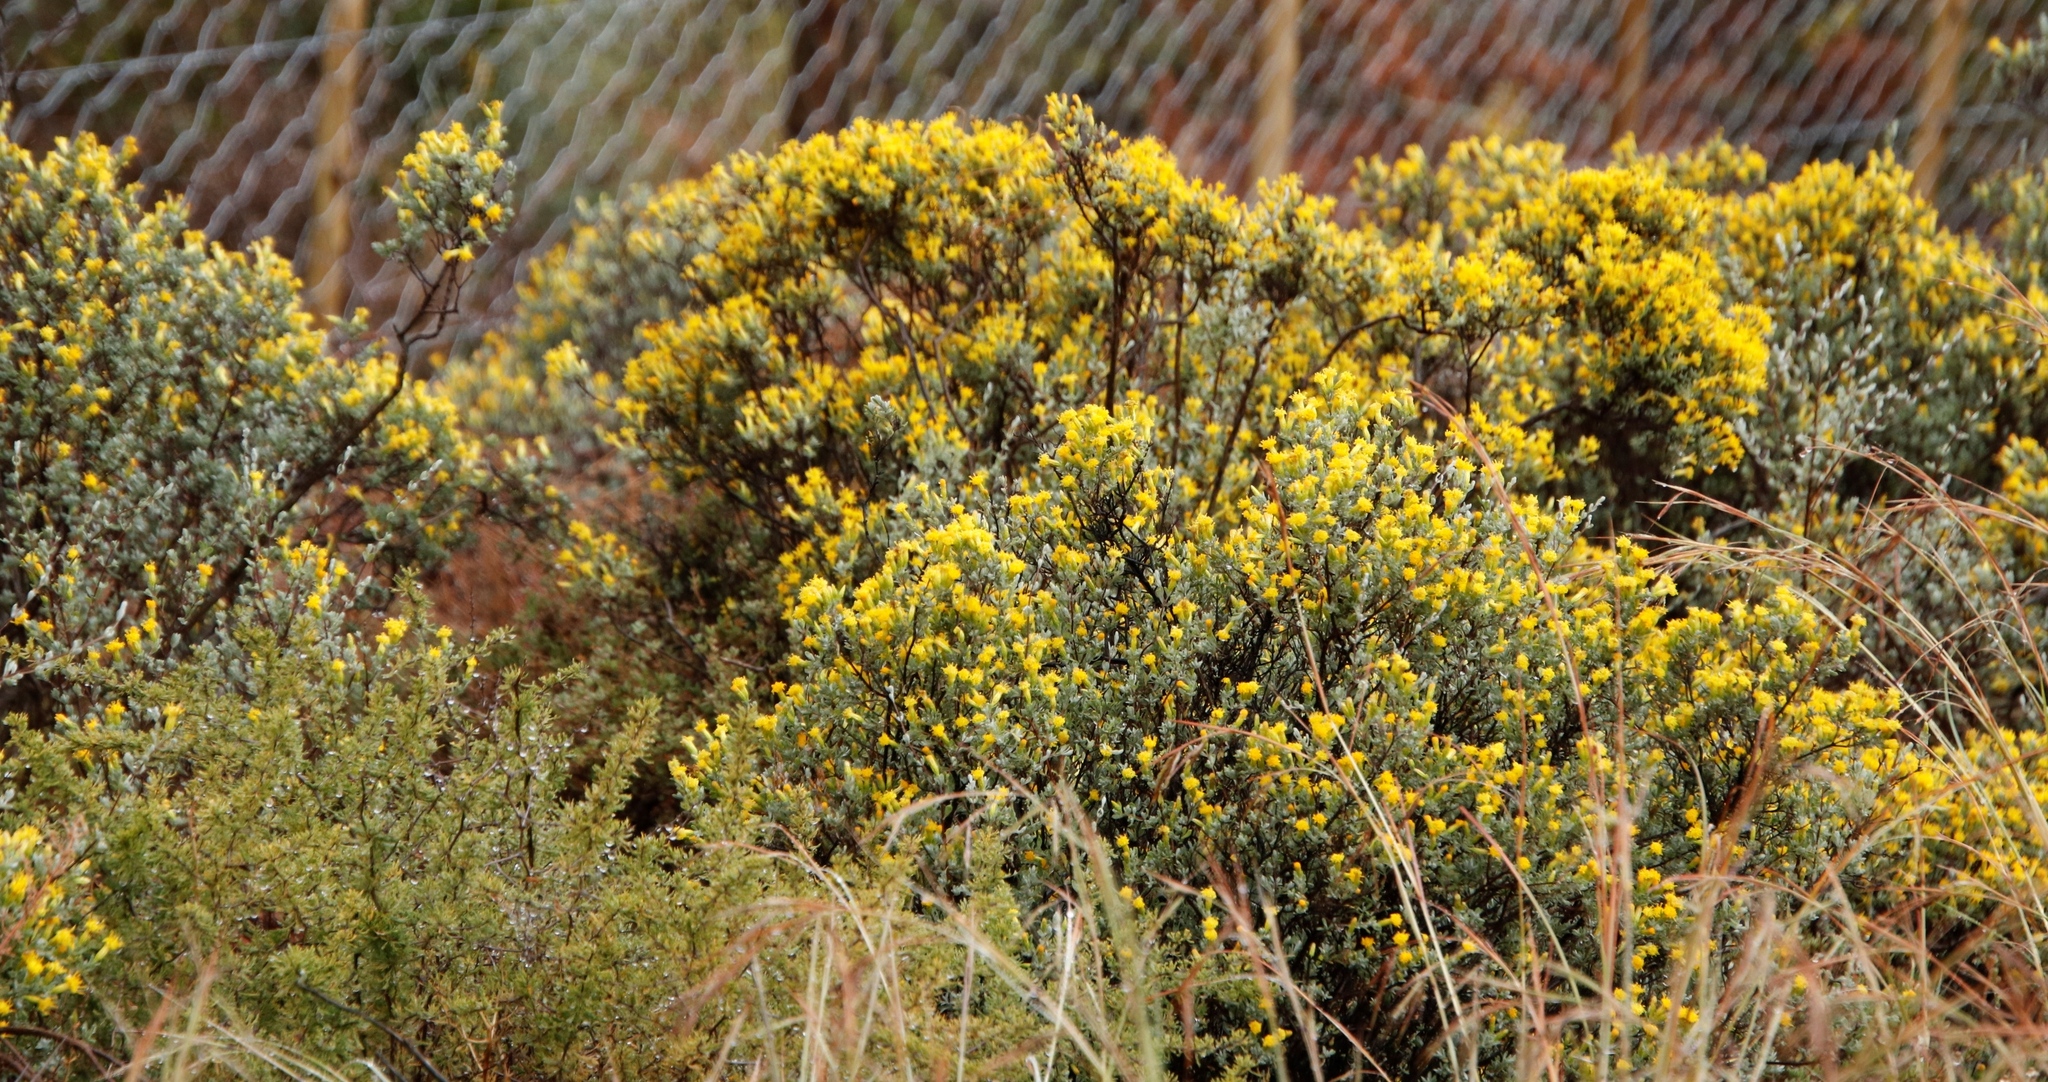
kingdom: Plantae
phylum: Tracheophyta
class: Magnoliopsida
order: Asterales
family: Asteraceae
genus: Pteronia
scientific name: Pteronia incana
